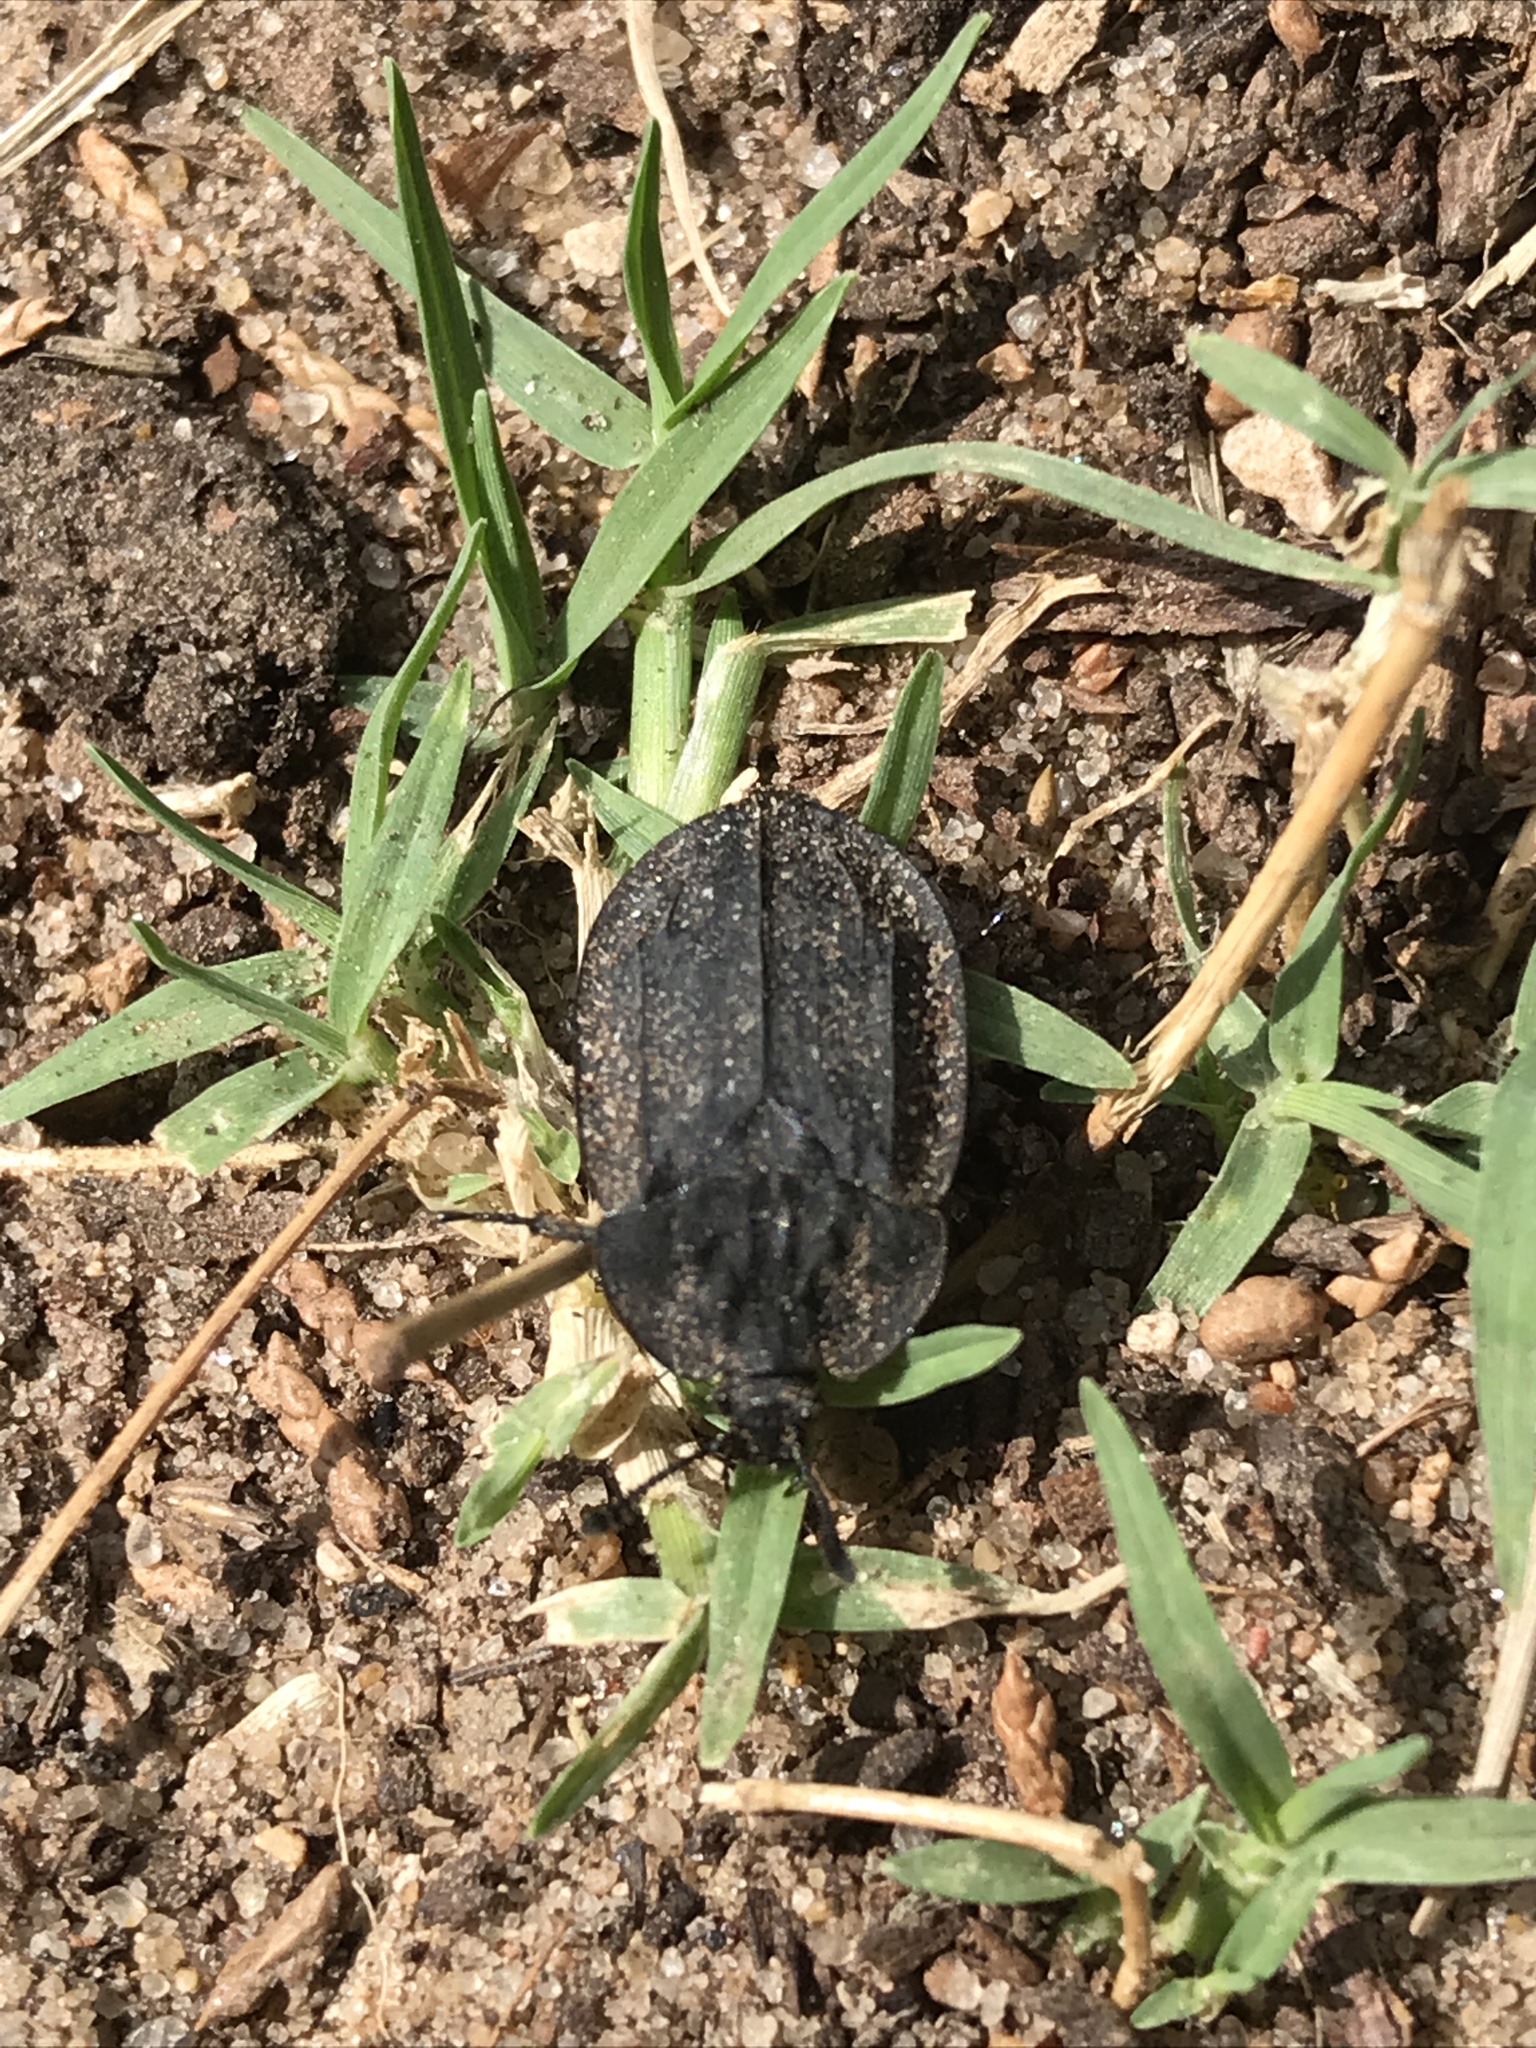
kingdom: Animalia
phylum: Arthropoda
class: Insecta
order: Coleoptera
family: Staphylinidae
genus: Oiceoptoma
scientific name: Oiceoptoma inaequale
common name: Ridged carrion beetle
